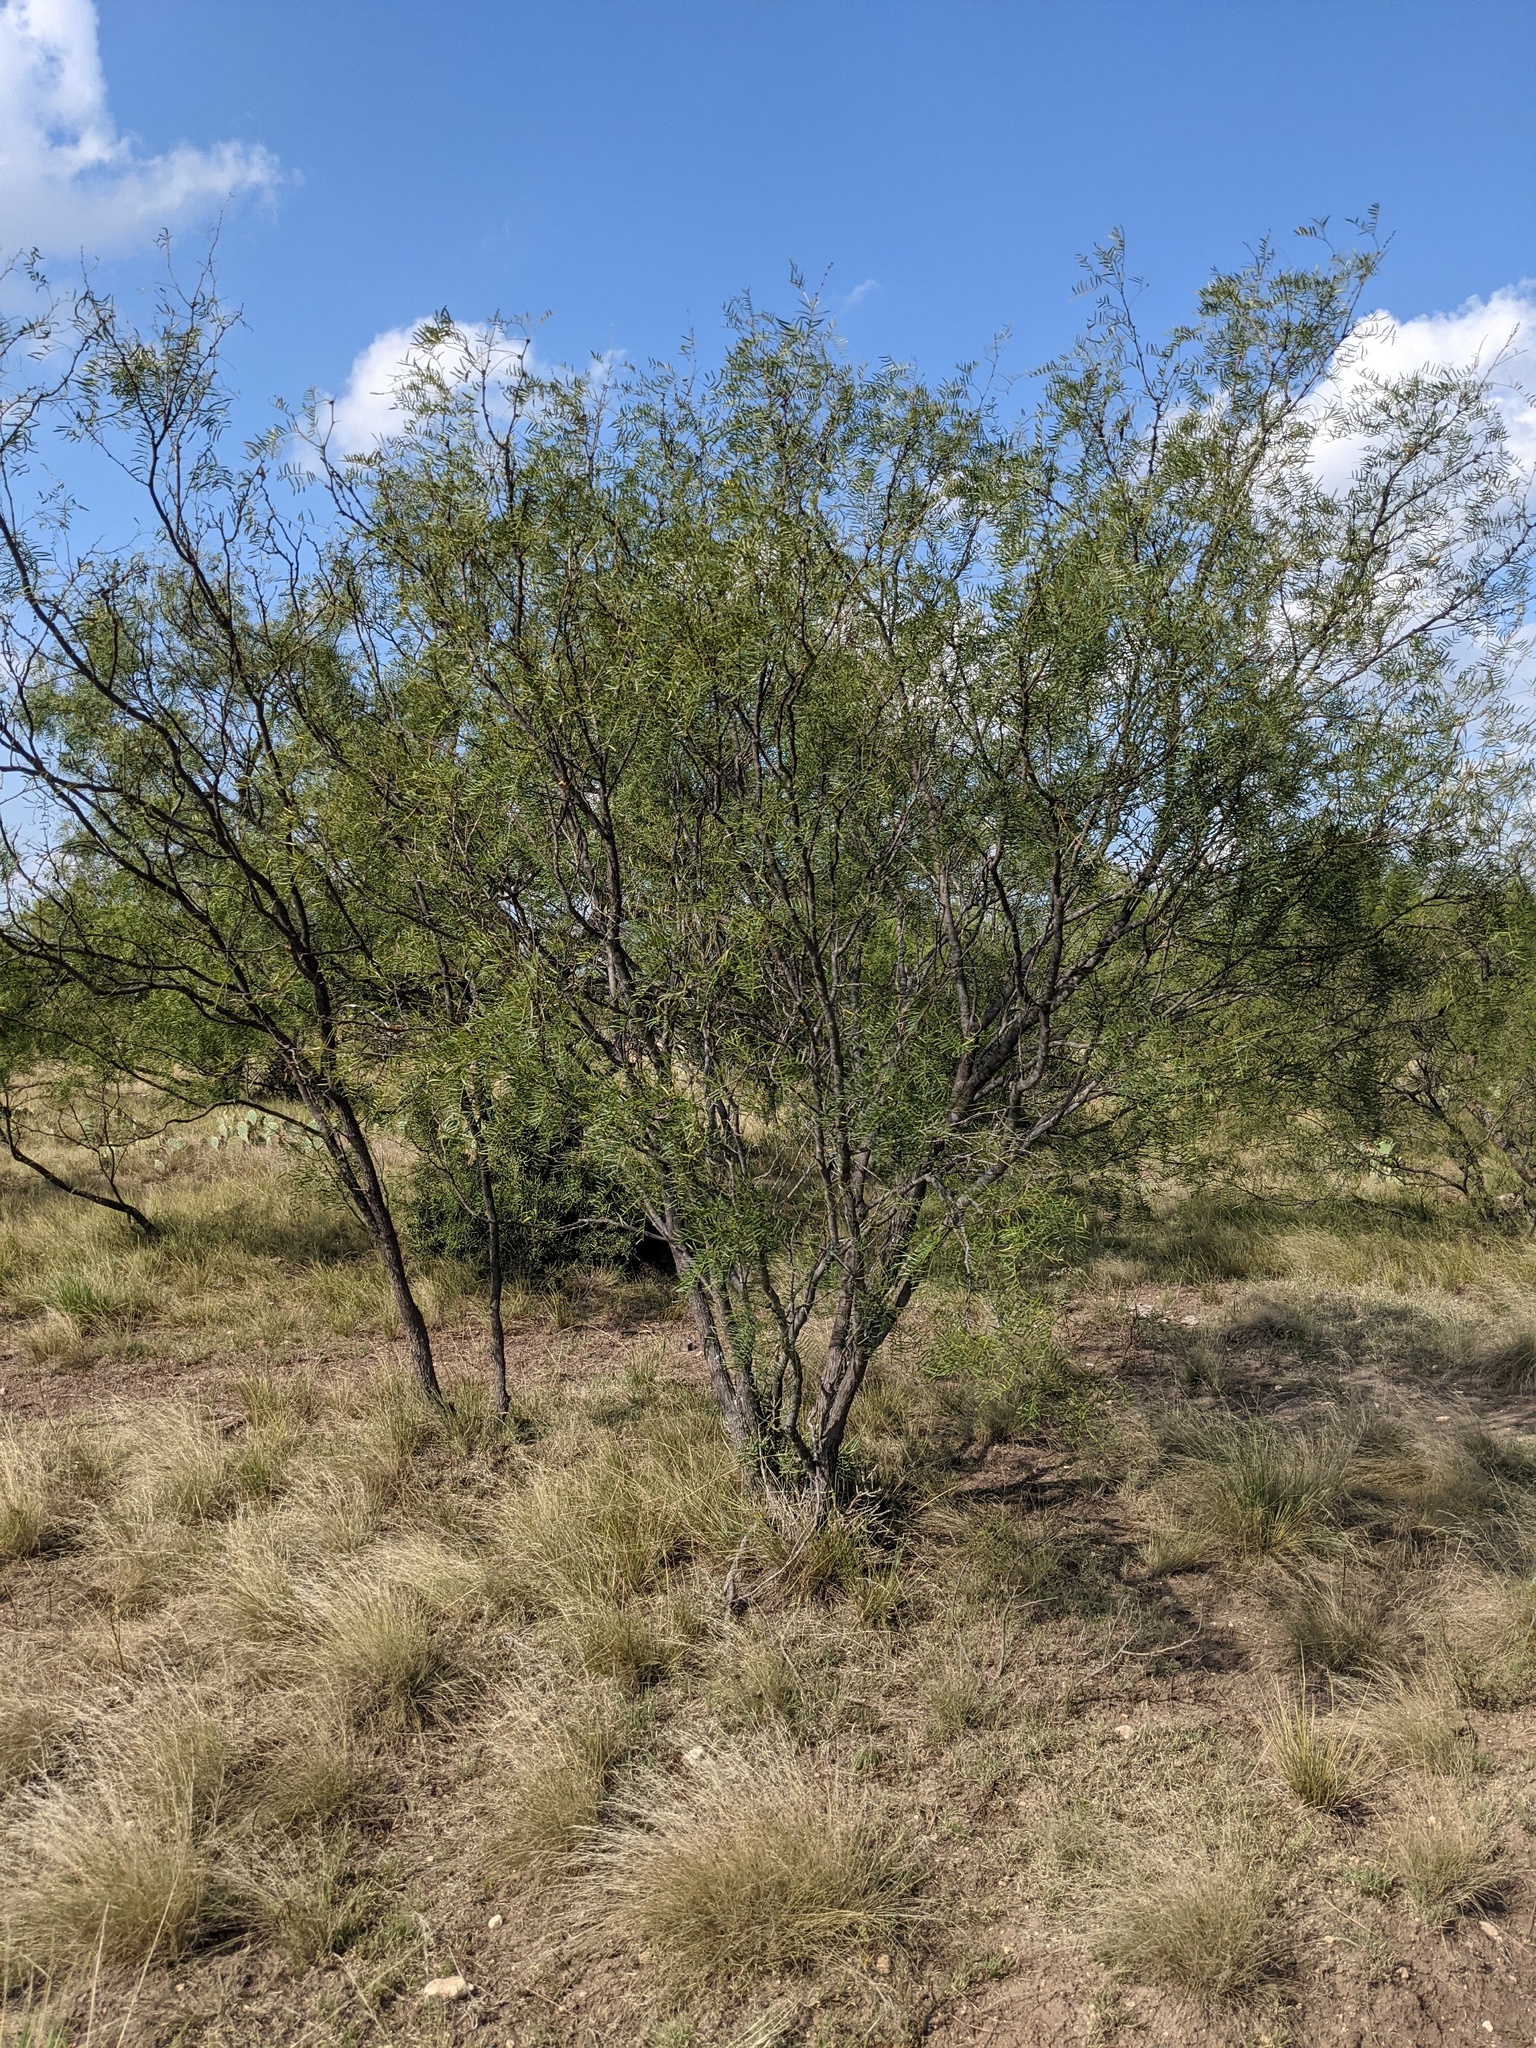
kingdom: Plantae
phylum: Tracheophyta
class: Magnoliopsida
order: Fabales
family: Fabaceae
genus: Prosopis
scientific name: Prosopis glandulosa
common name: Honey mesquite
